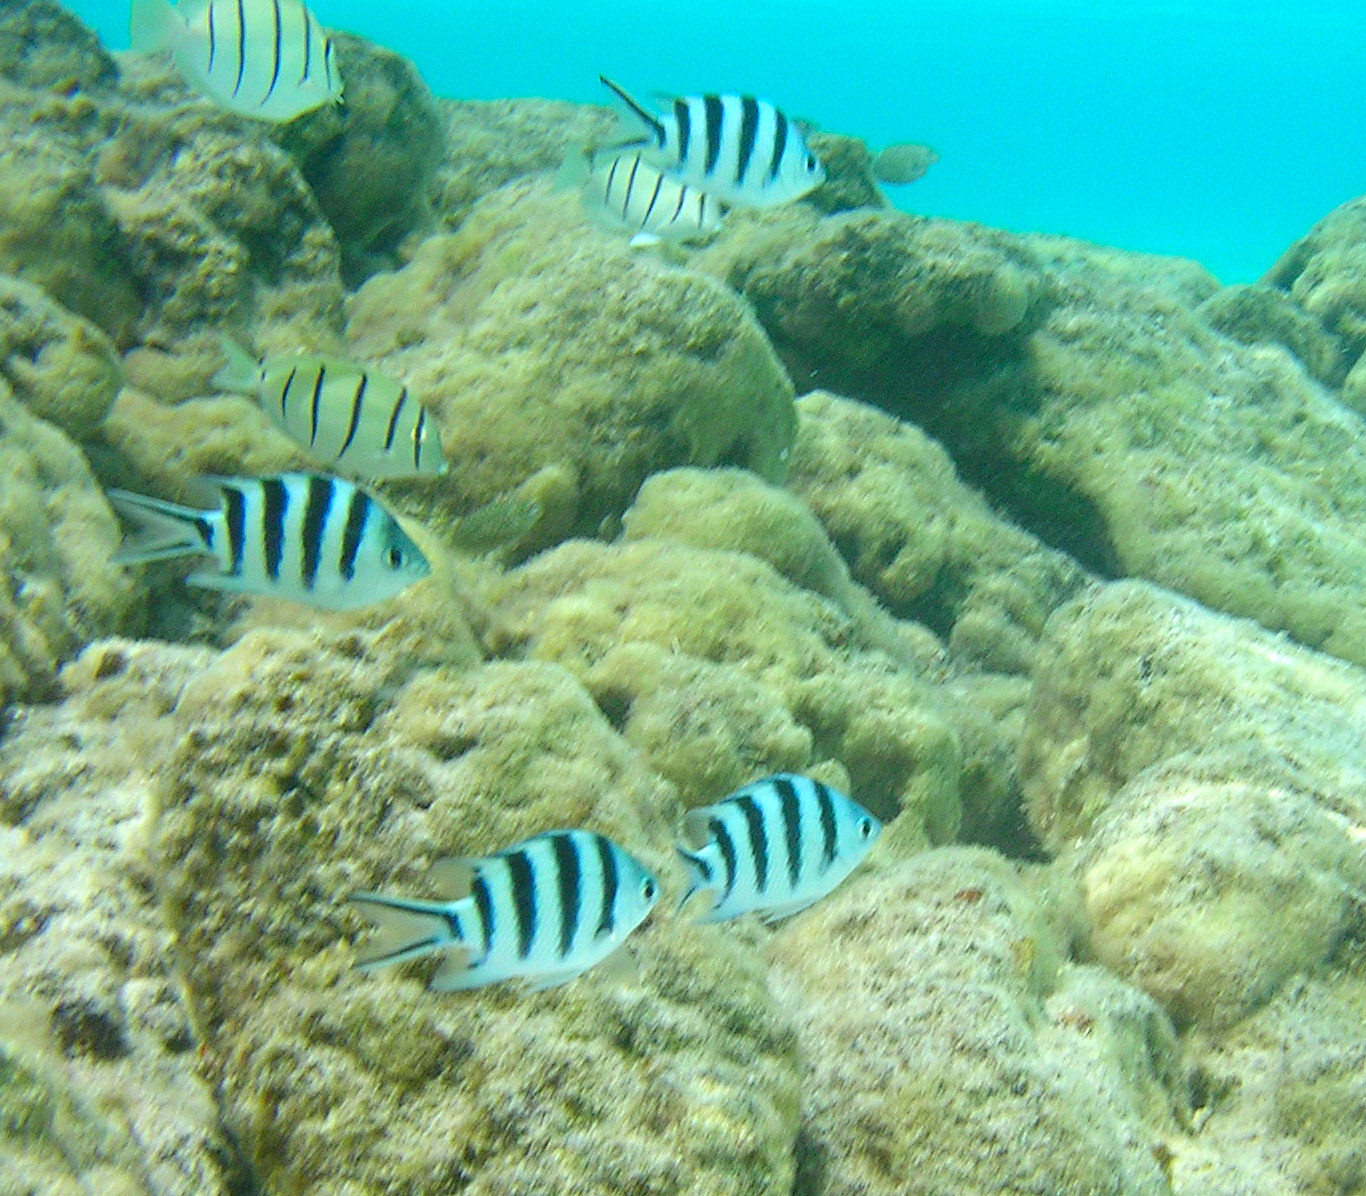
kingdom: Animalia
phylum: Chordata
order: Perciformes
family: Pomacentridae
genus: Abudefduf
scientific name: Abudefduf sexfasciatus
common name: Scissortail sergeant
